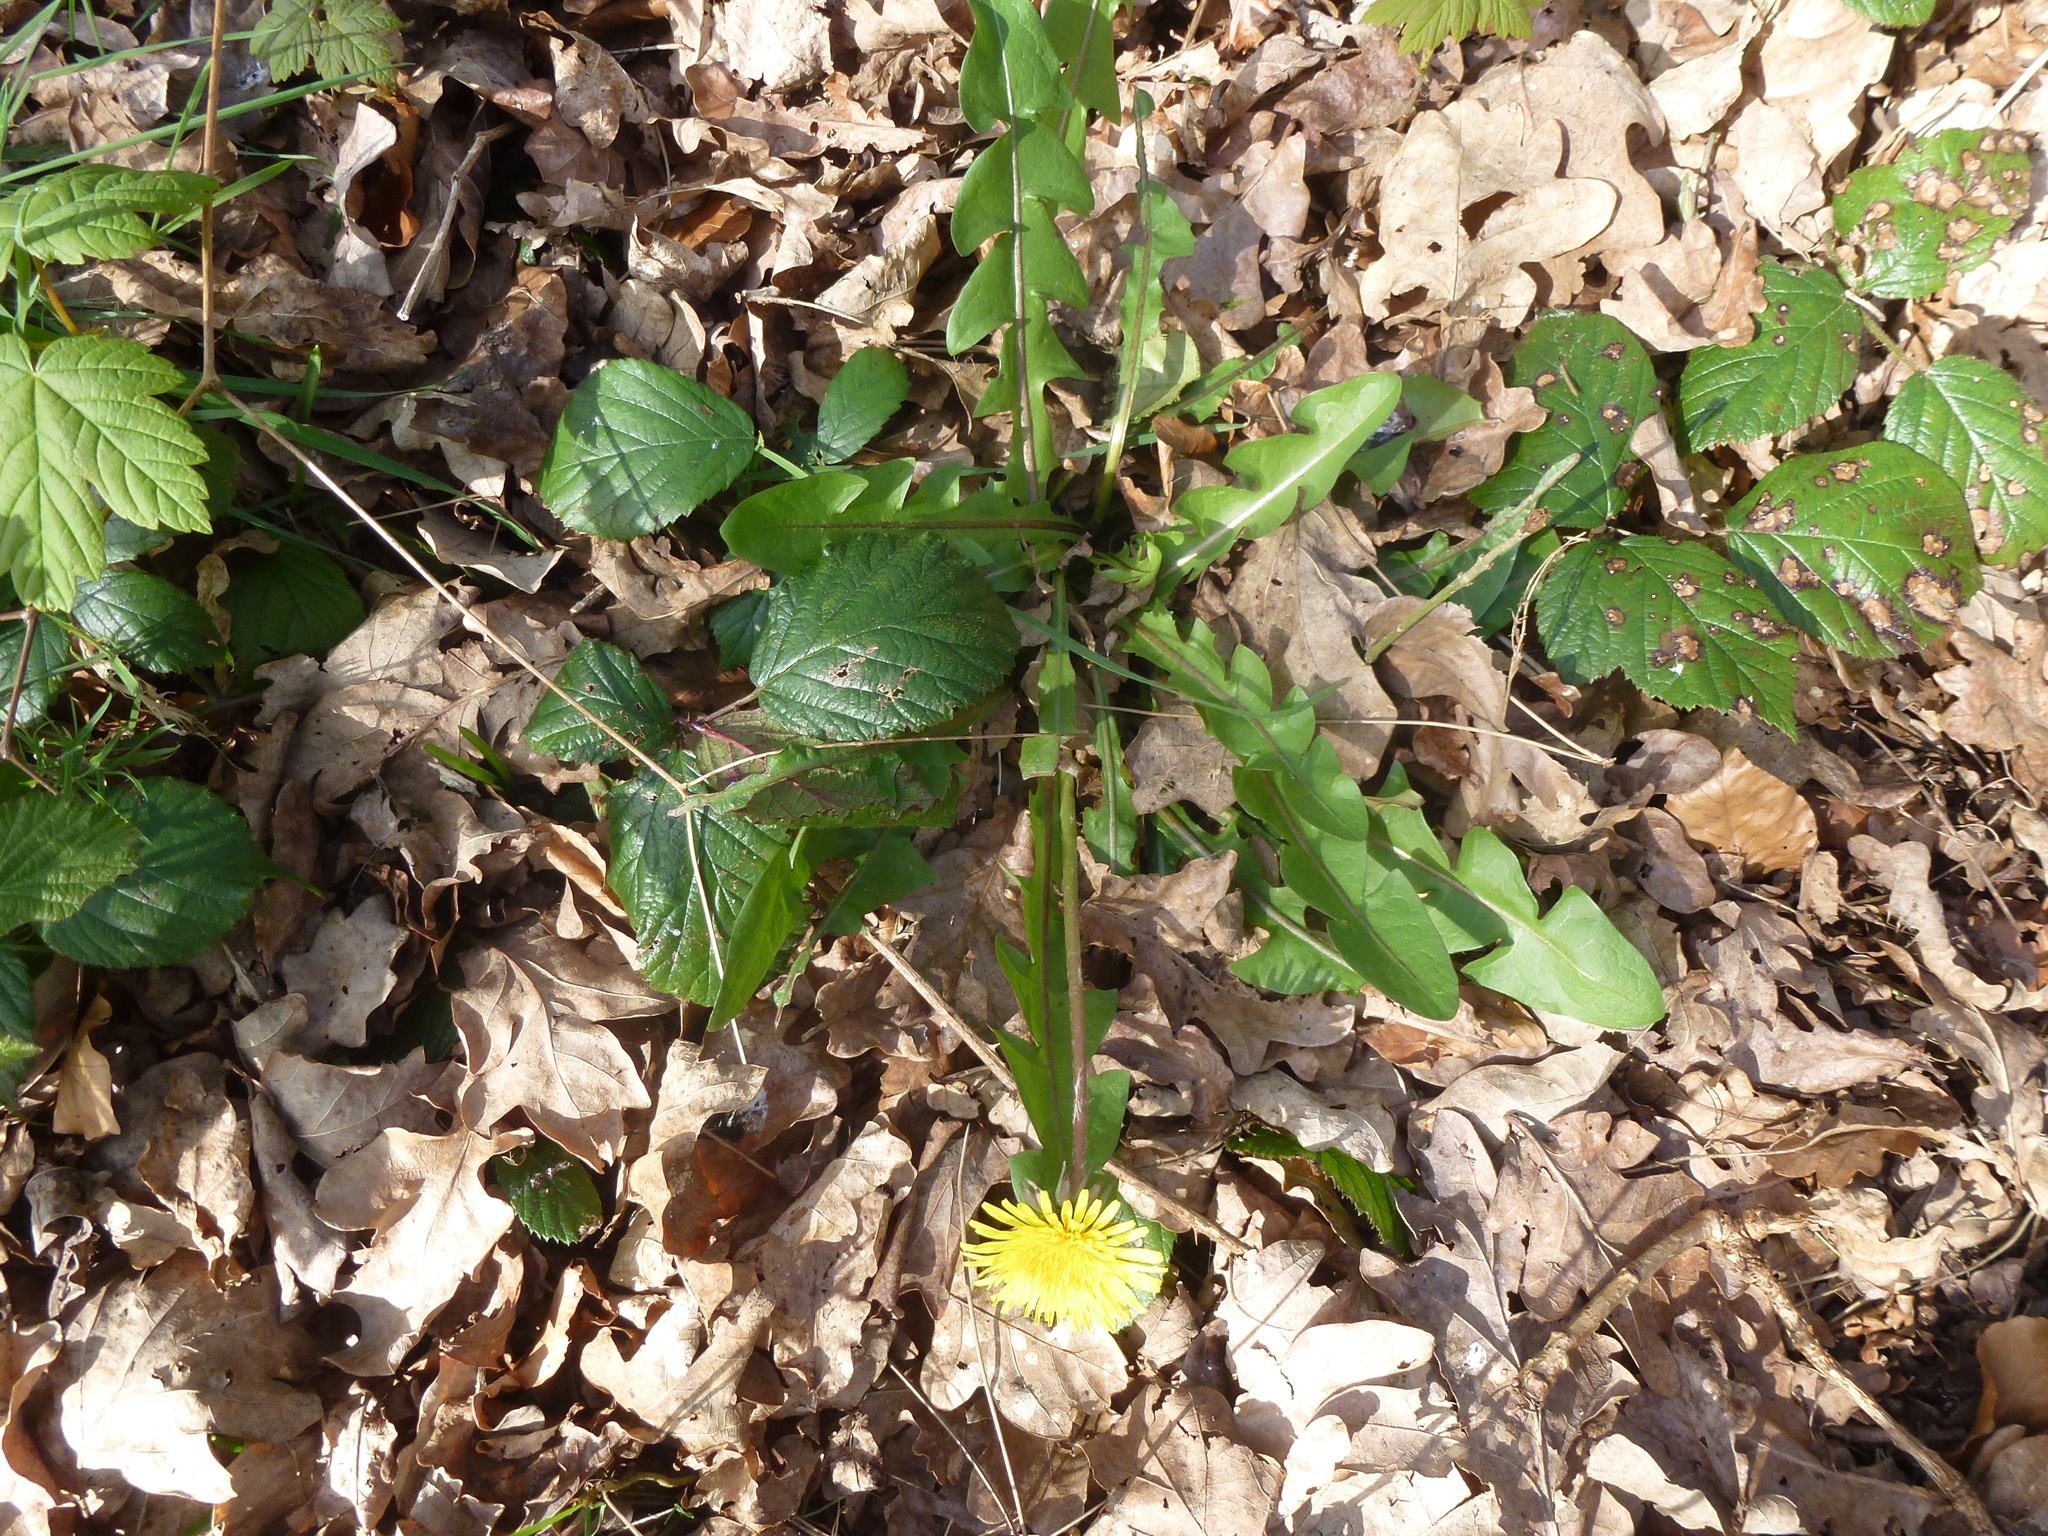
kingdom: Plantae
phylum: Tracheophyta
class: Magnoliopsida
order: Asterales
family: Asteraceae
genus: Taraxacum
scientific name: Taraxacum officinale
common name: Common dandelion
